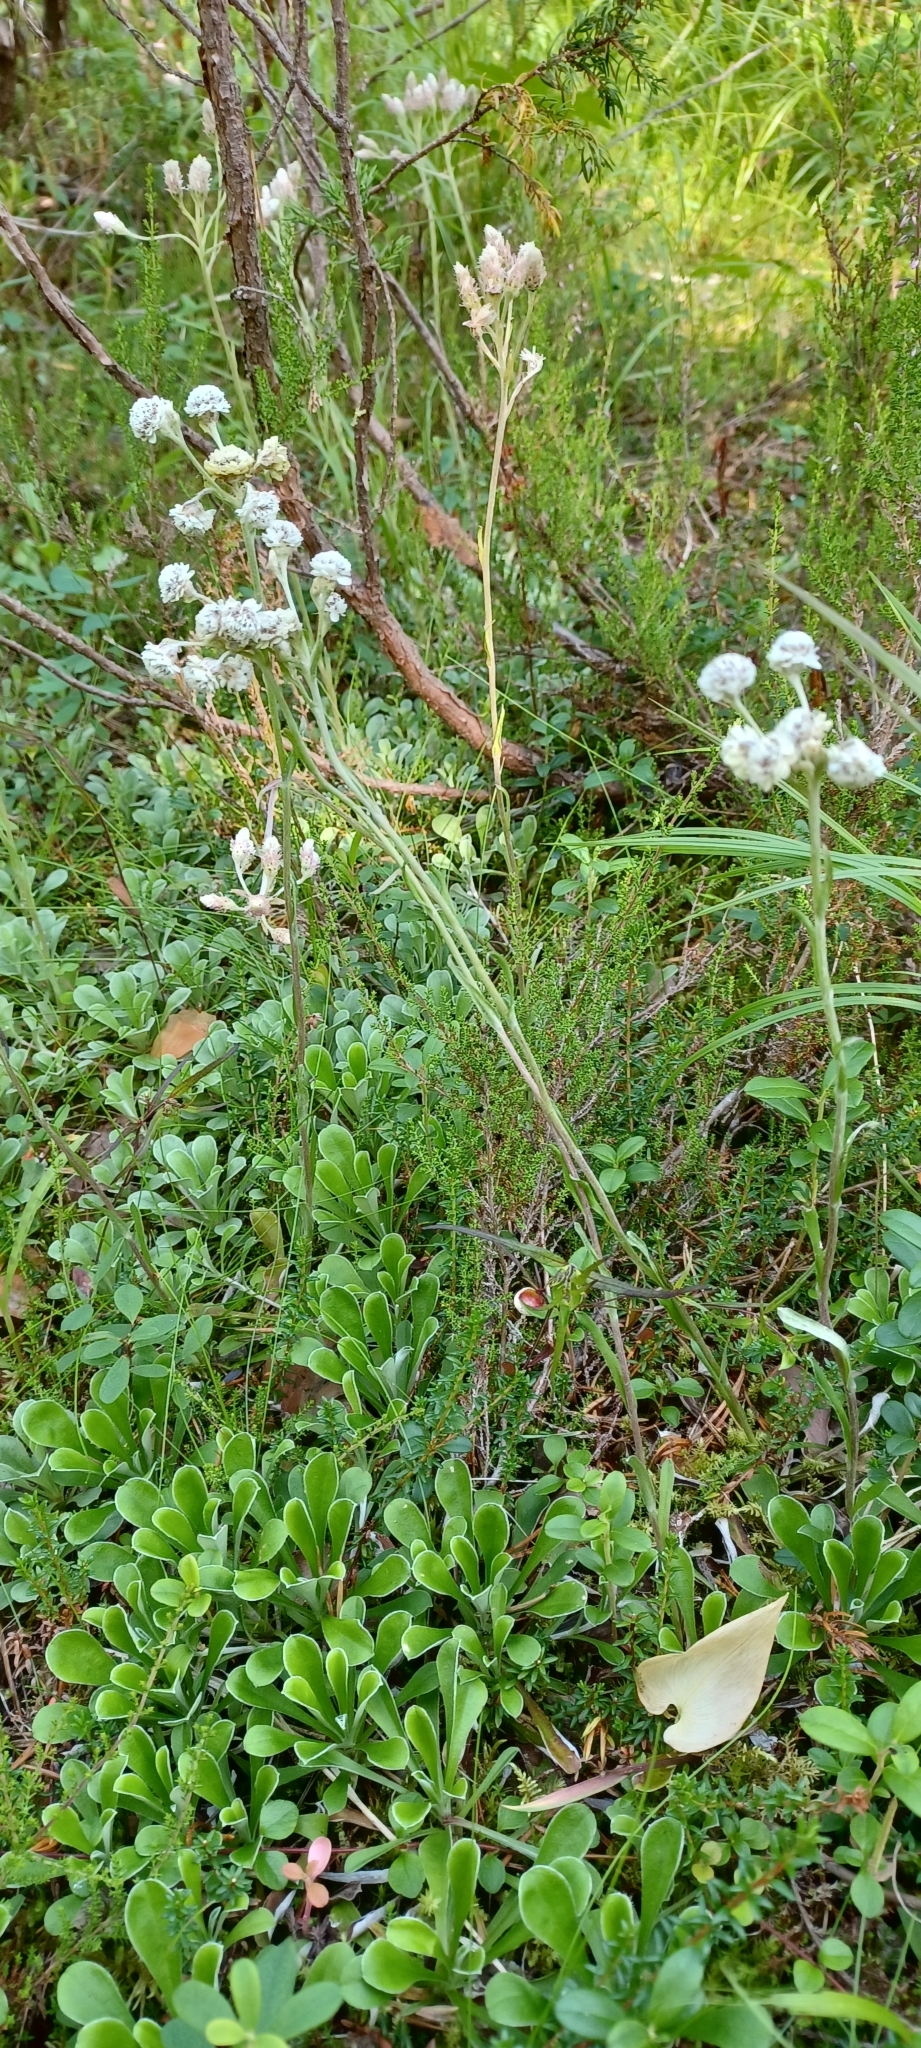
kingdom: Plantae
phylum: Tracheophyta
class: Magnoliopsida
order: Asterales
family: Asteraceae
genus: Antennaria
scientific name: Antennaria dioica
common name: Mountain everlasting
